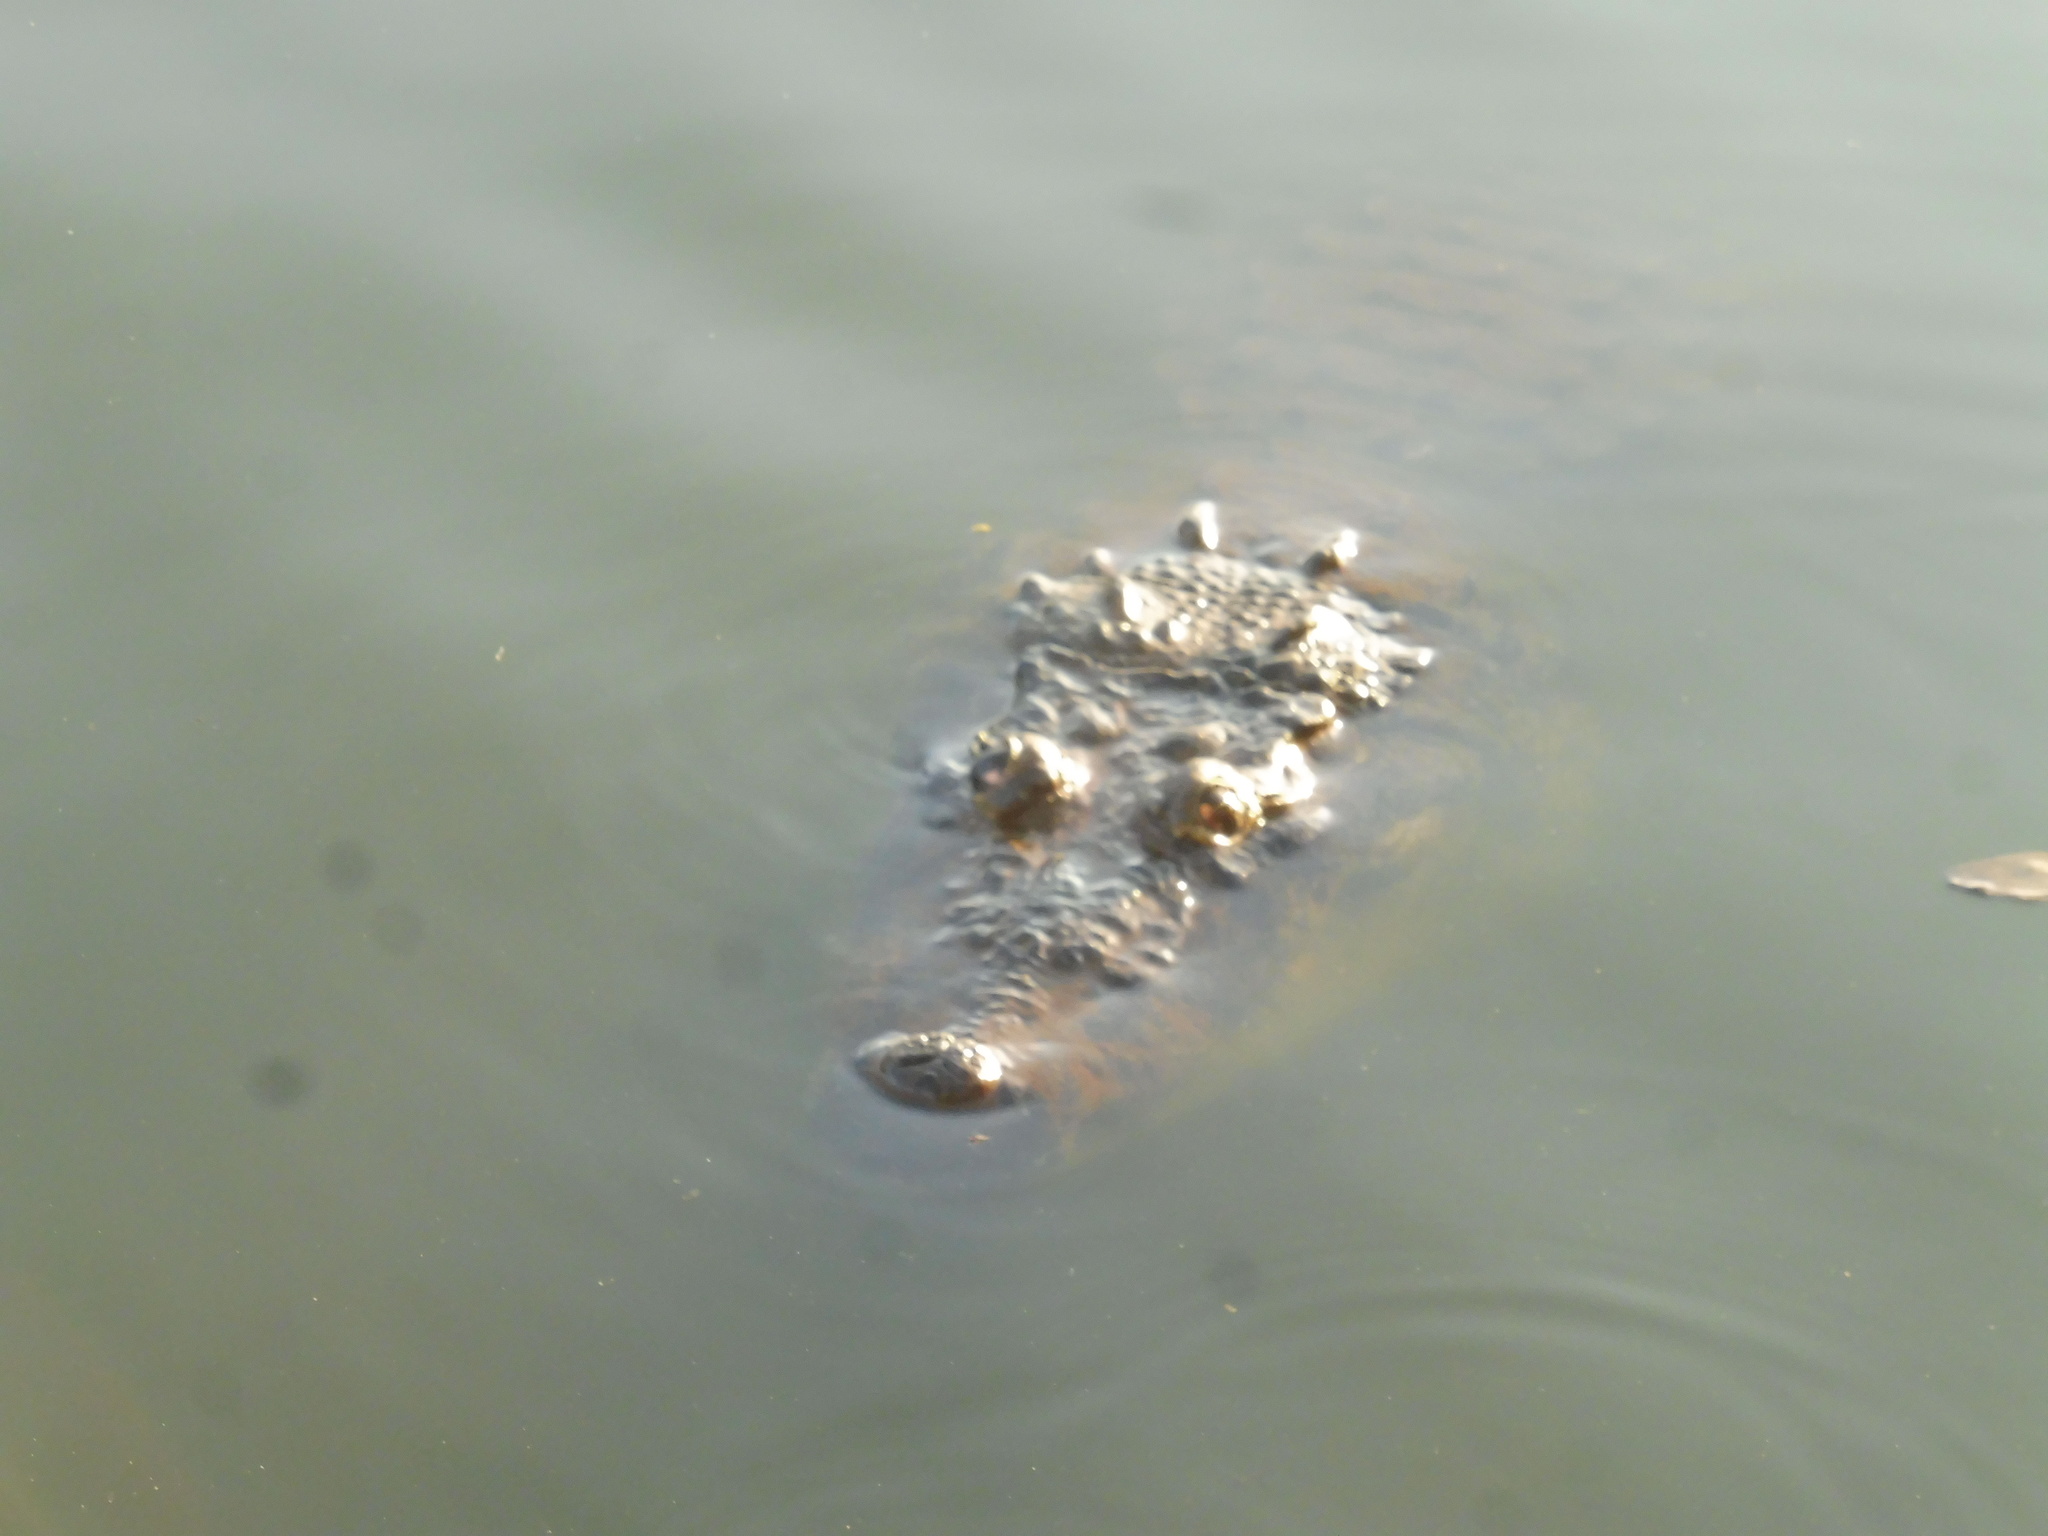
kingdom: Animalia
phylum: Chordata
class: Crocodylia
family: Crocodylidae
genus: Crocodylus
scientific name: Crocodylus moreletii
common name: Morelet's crocodile
